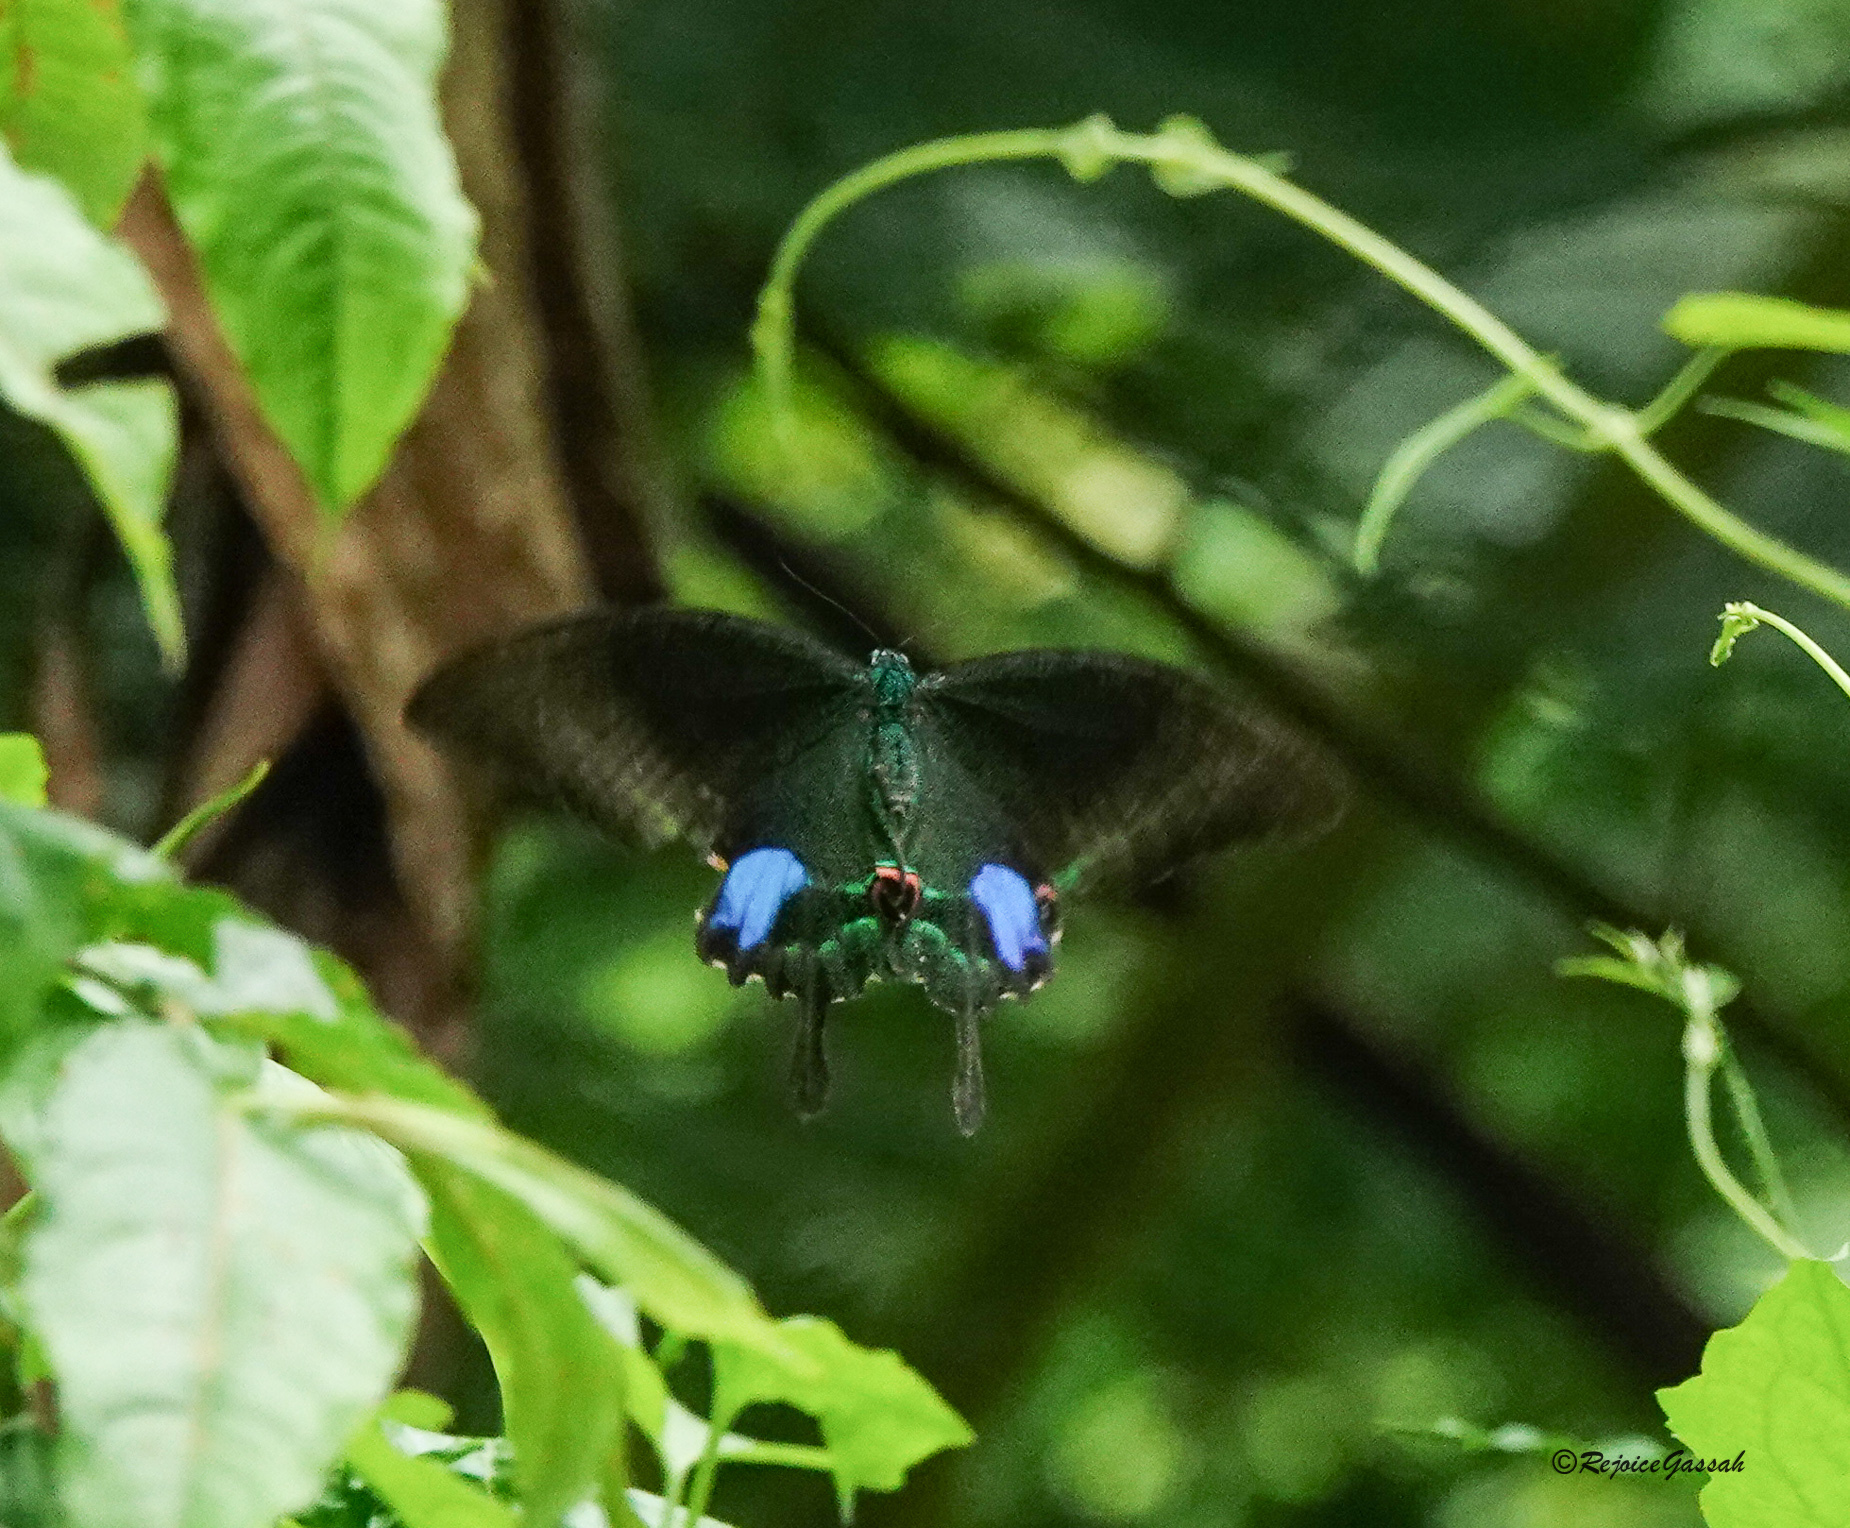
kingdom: Animalia
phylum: Arthropoda
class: Insecta
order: Lepidoptera
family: Papilionidae
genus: Papilio
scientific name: Papilio paris
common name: Paris peacock
